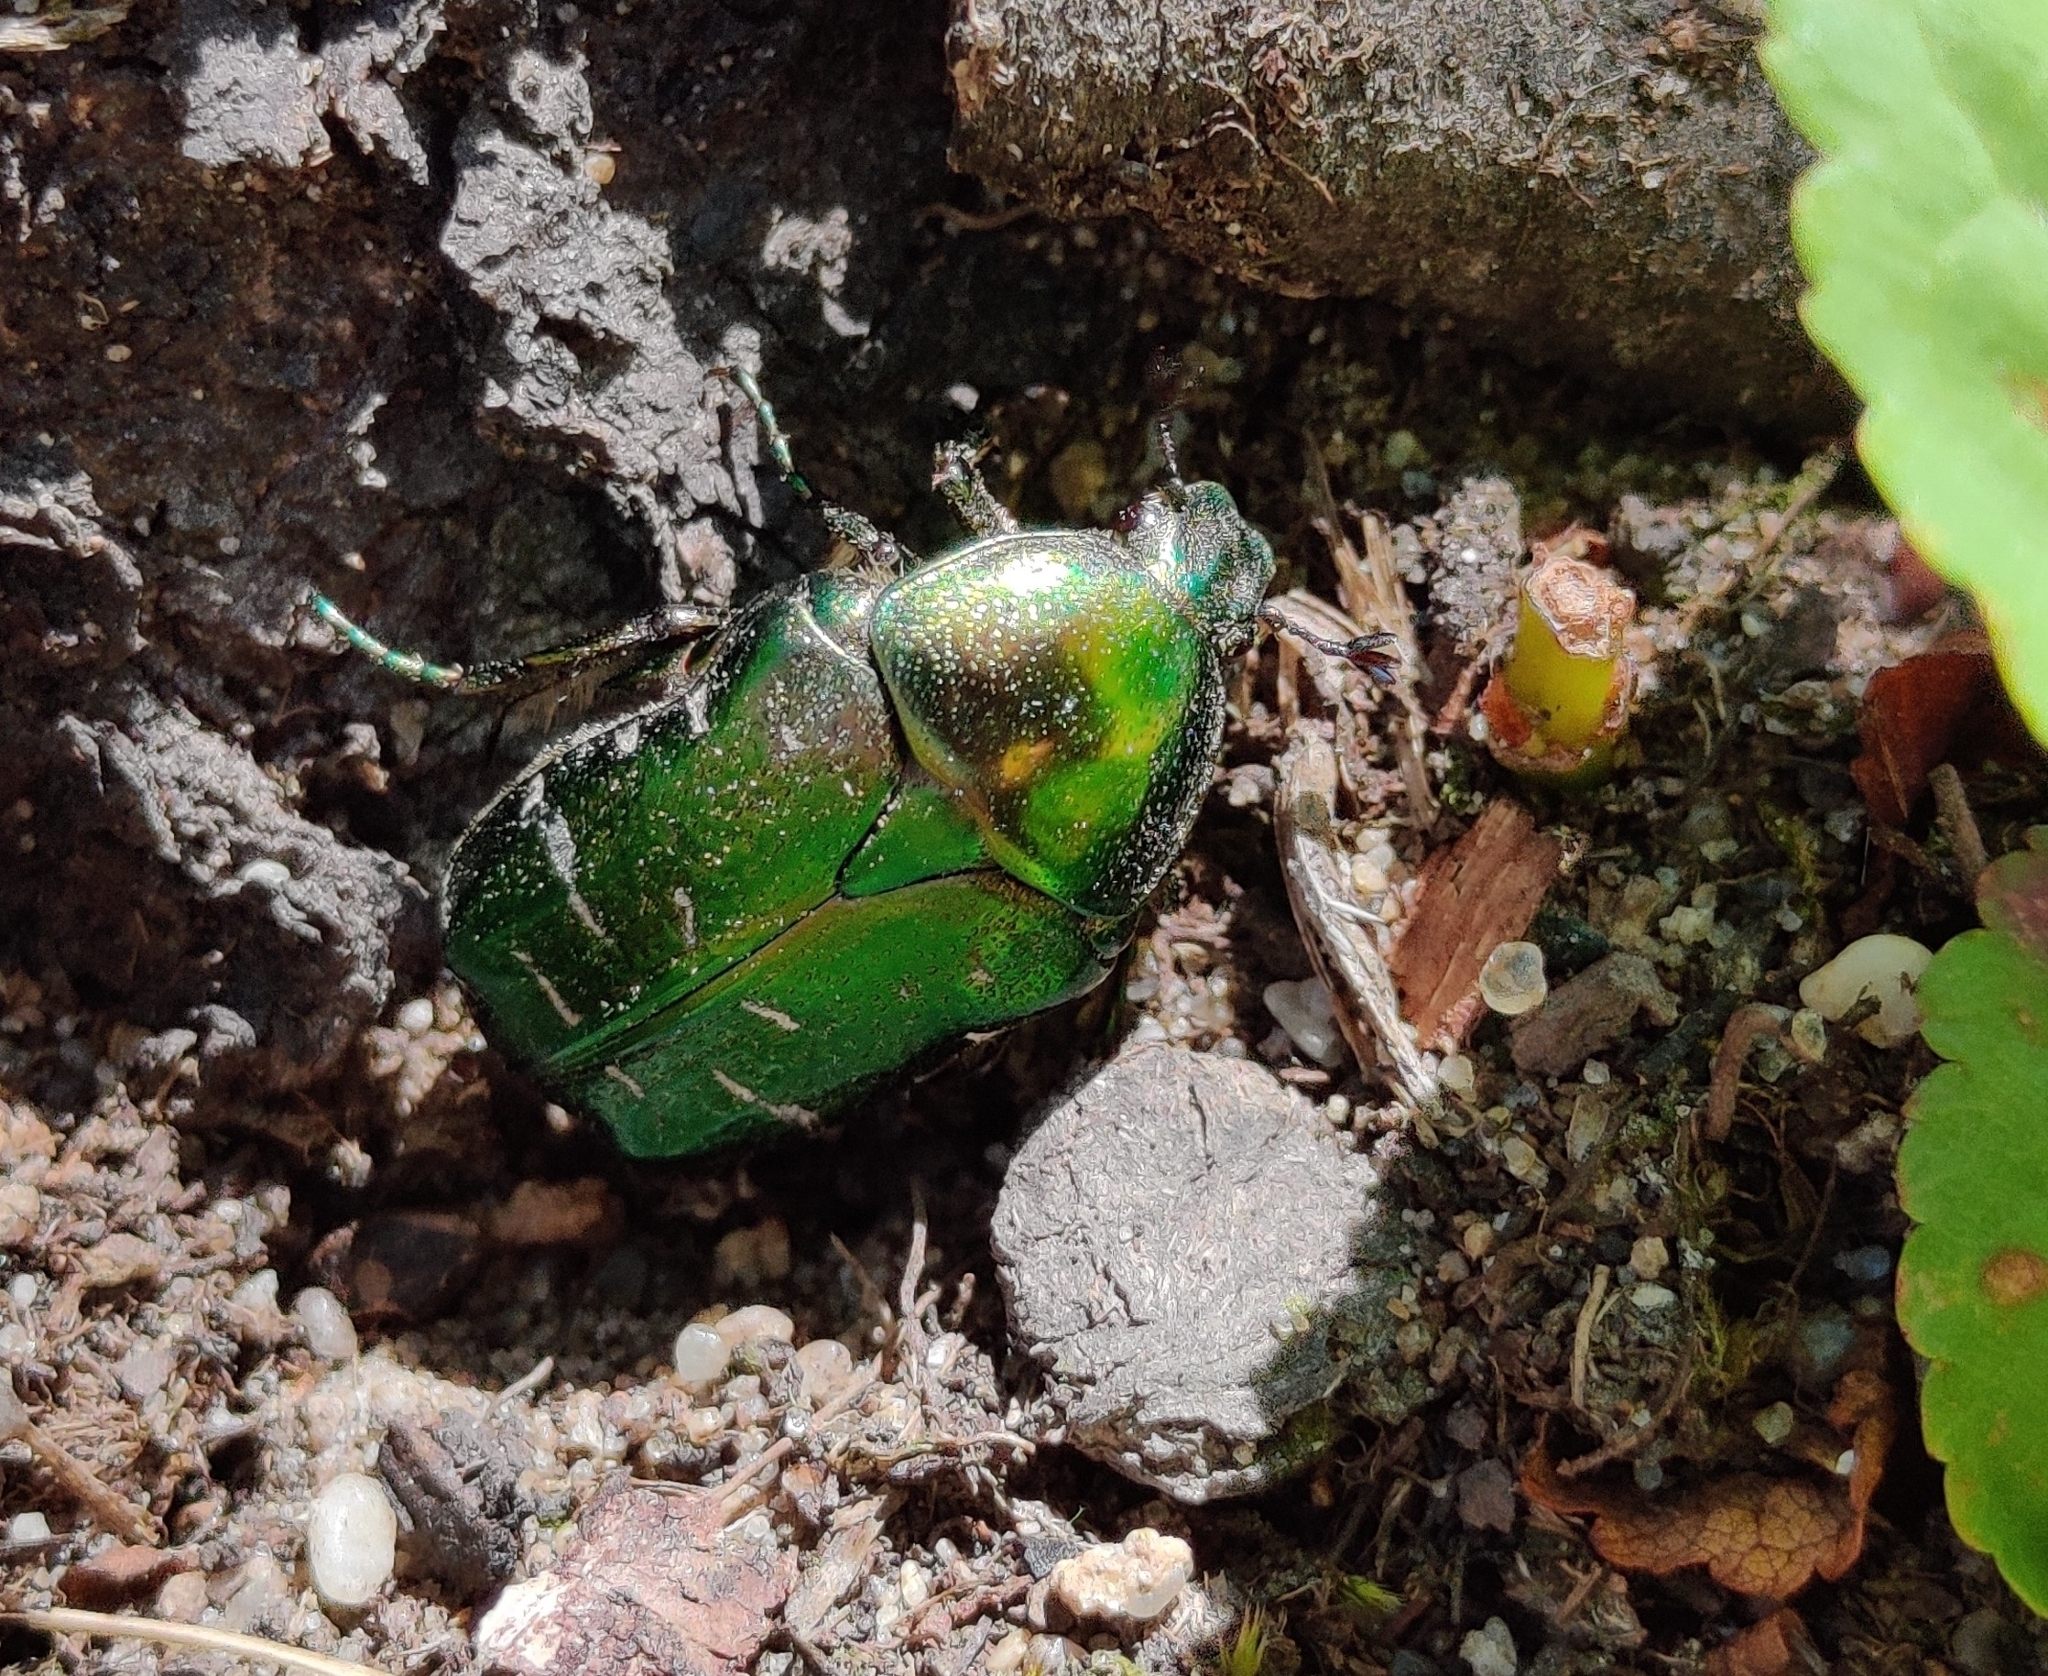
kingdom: Animalia
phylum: Arthropoda
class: Insecta
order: Coleoptera
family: Scarabaeidae
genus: Cetonia
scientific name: Cetonia aurata
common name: Rose chafer
